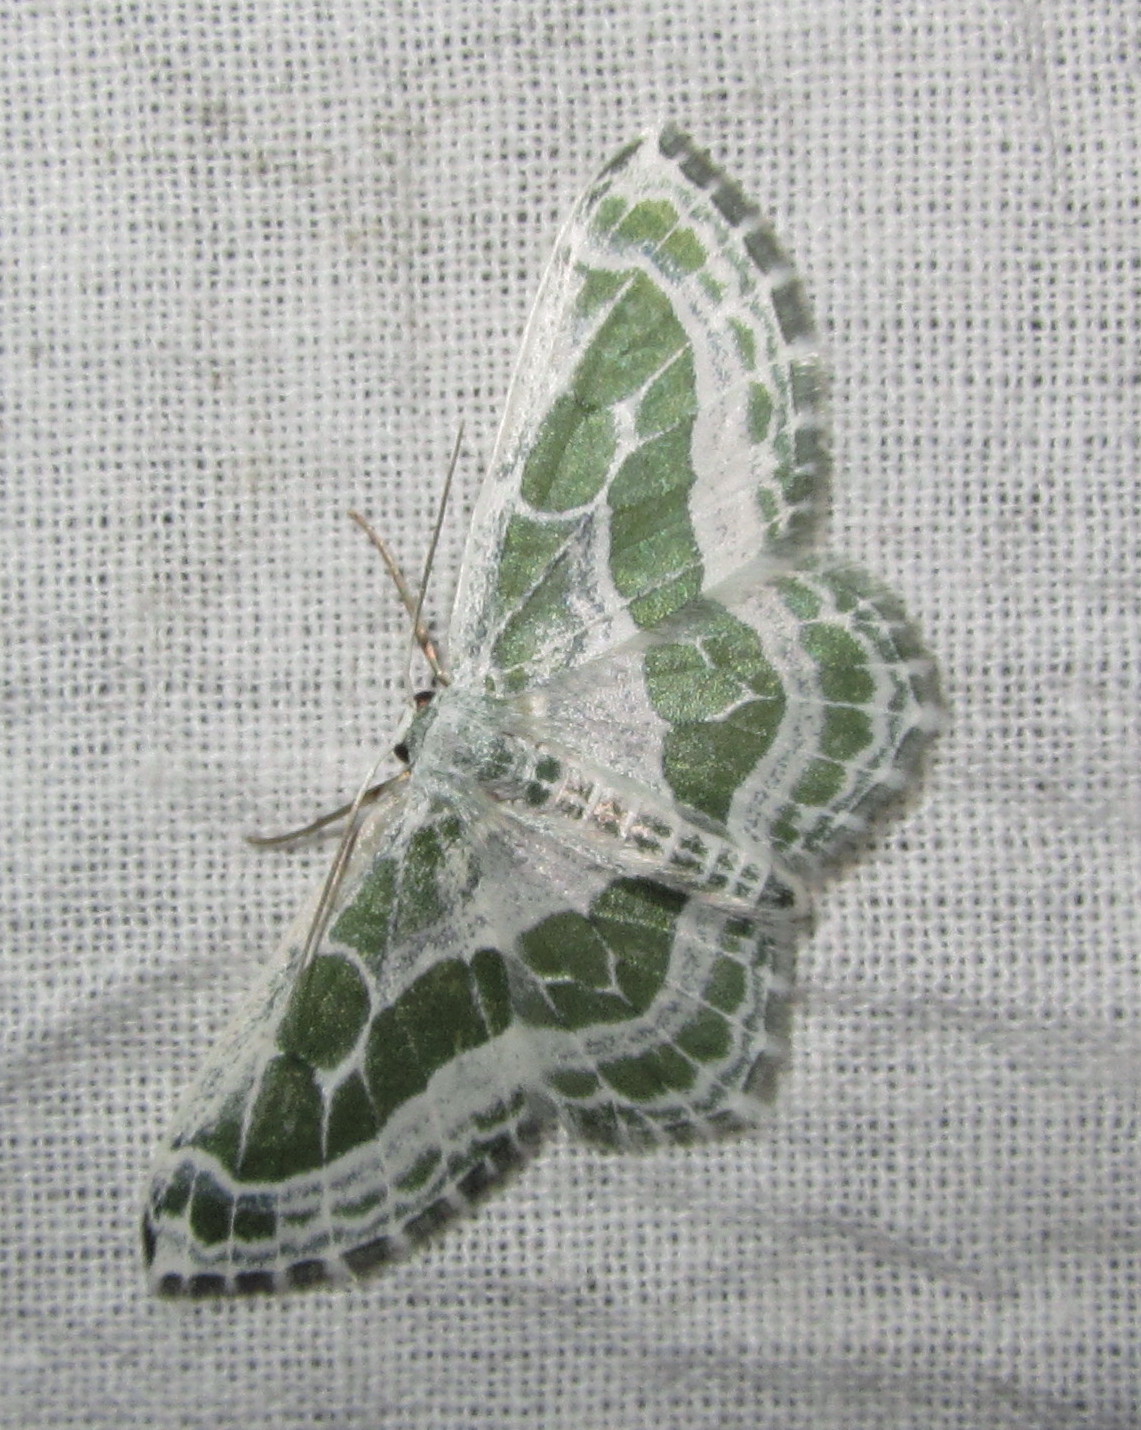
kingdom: Animalia
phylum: Arthropoda
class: Insecta
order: Lepidoptera
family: Geometridae
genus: Pseudeuchlora
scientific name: Pseudeuchlora kafebera
